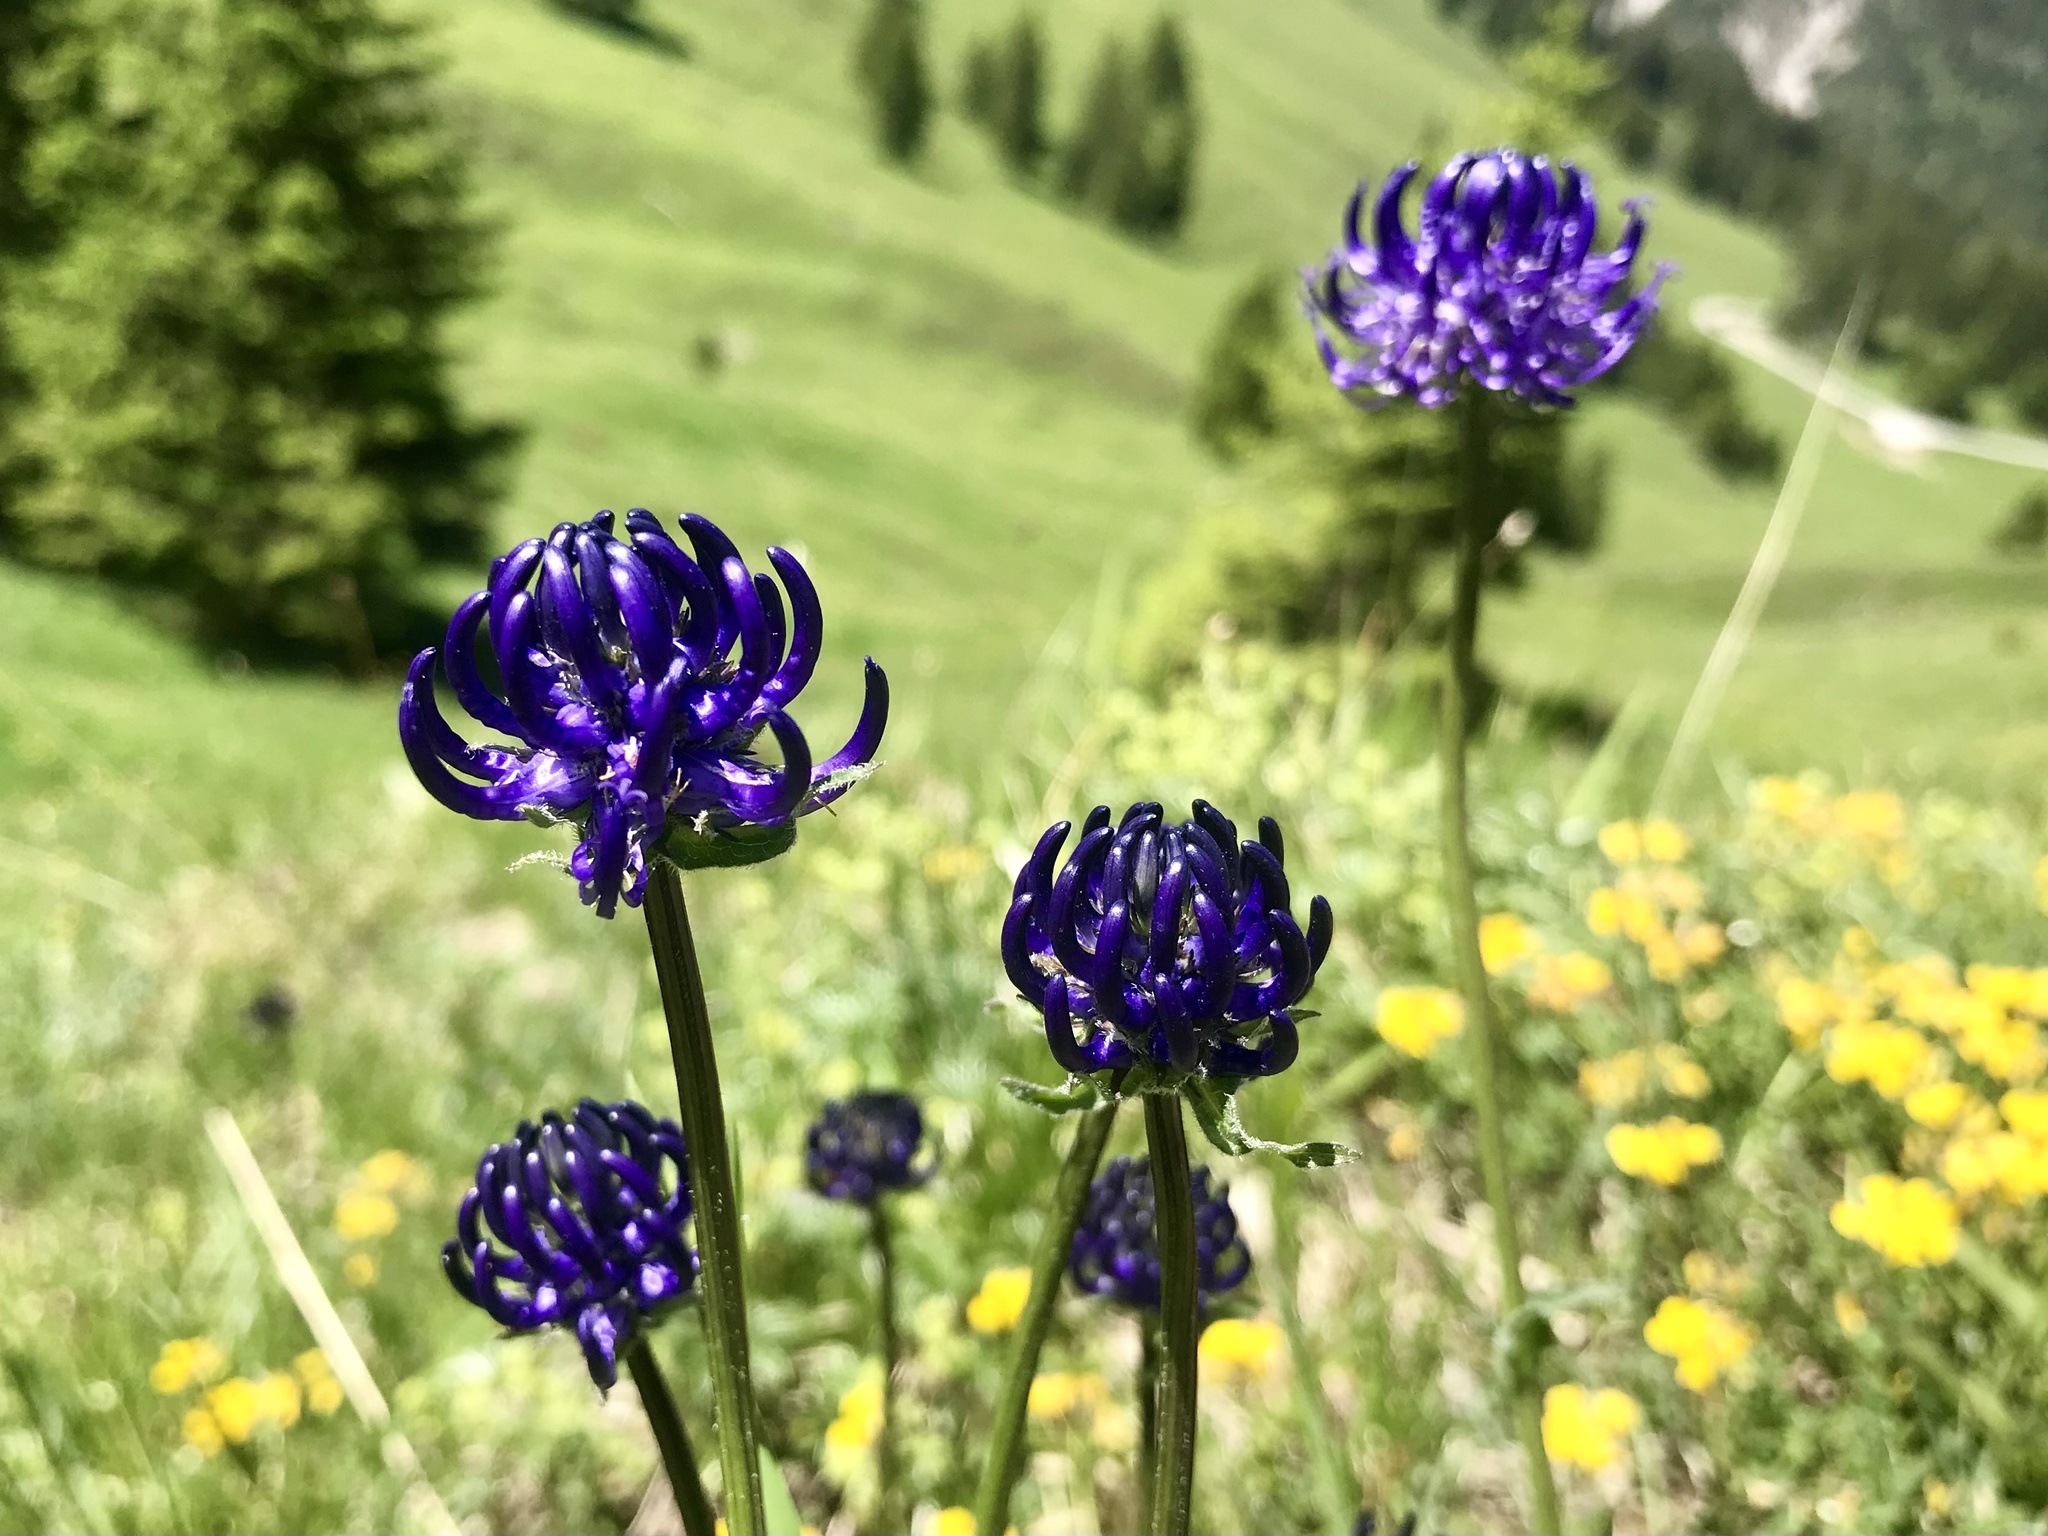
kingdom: Plantae
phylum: Tracheophyta
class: Magnoliopsida
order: Asterales
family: Campanulaceae
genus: Phyteuma
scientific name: Phyteuma orbiculare
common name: Round-headed rampion
